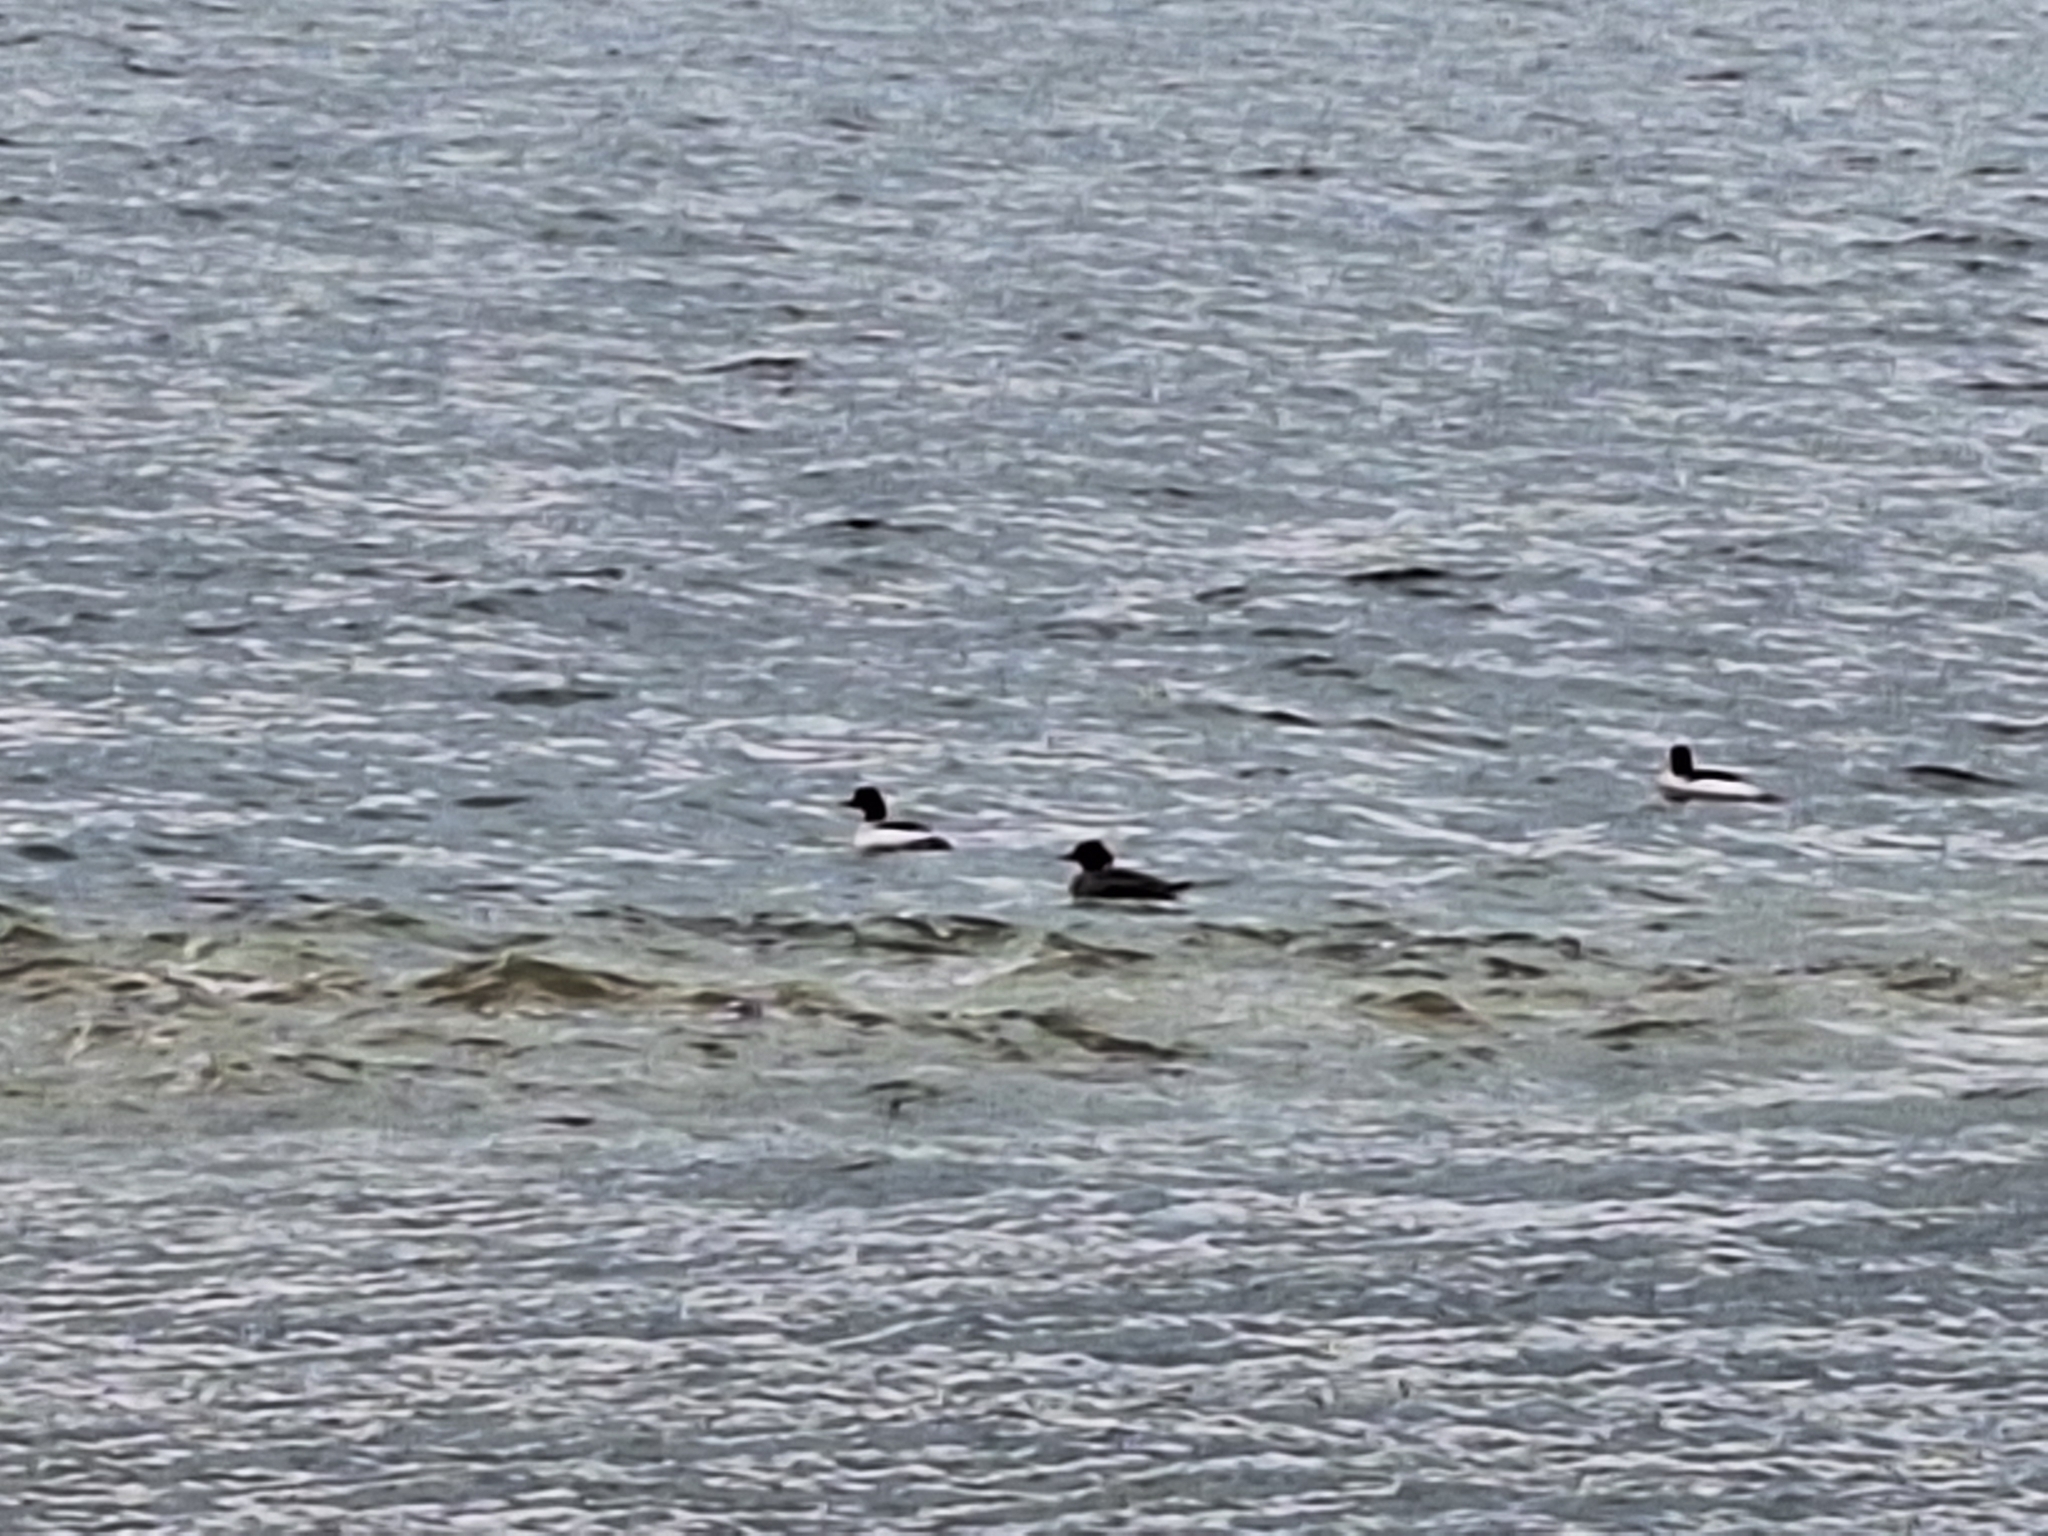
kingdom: Animalia
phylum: Chordata
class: Aves
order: Anseriformes
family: Anatidae
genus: Mergus
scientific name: Mergus merganser
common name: Common merganser
